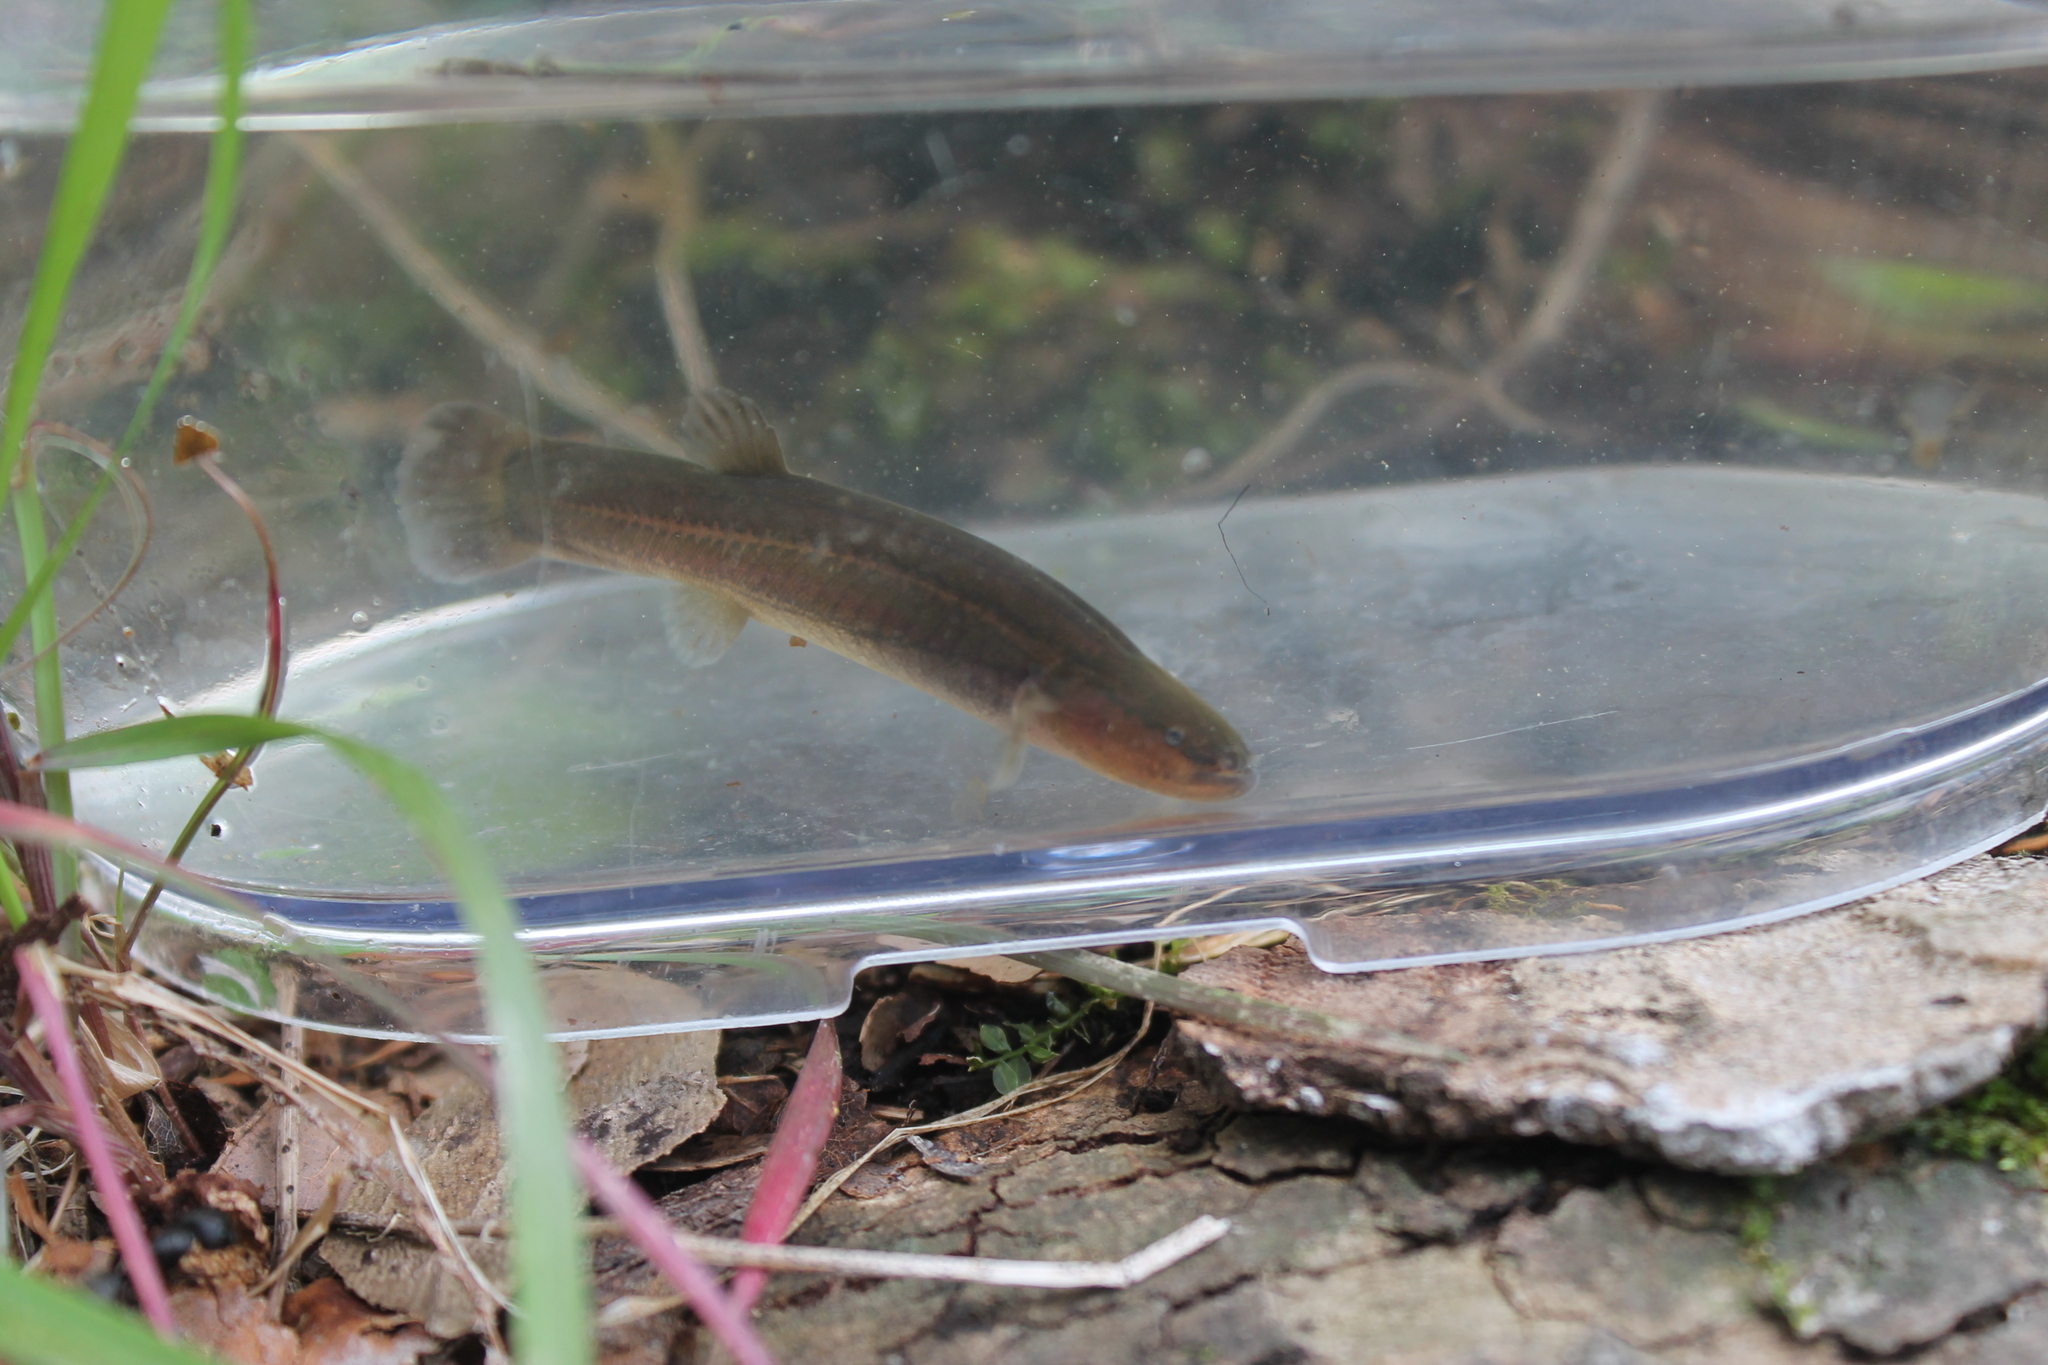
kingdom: Animalia
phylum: Chordata
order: Percopsiformes
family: Amblyopsidae
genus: Forbesichthys
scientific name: Forbesichthys
